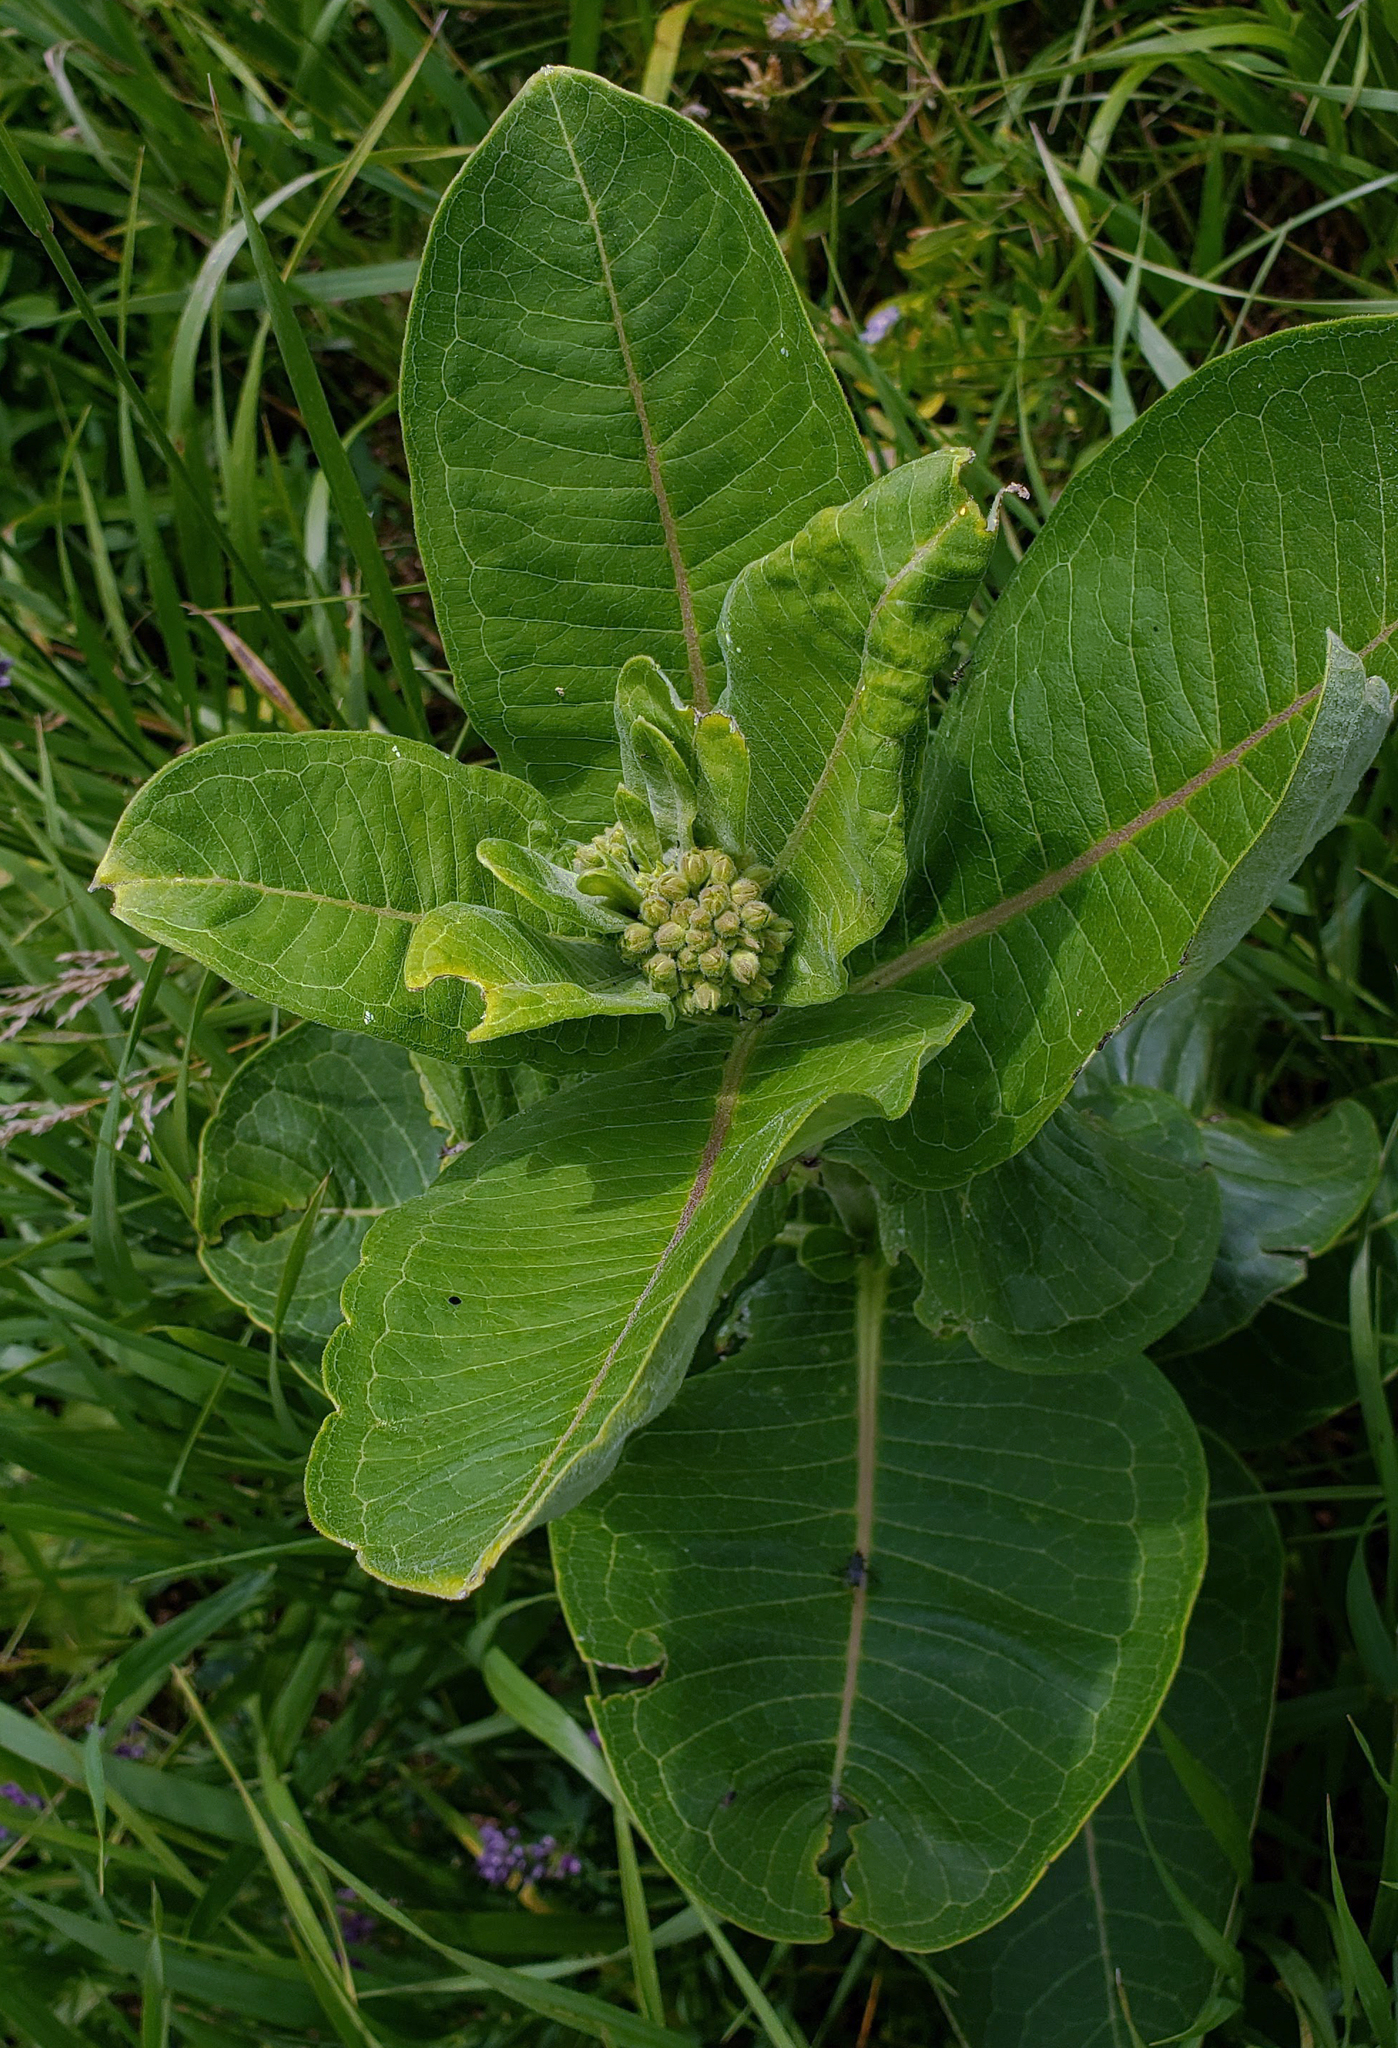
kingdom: Plantae
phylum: Tracheophyta
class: Magnoliopsida
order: Gentianales
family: Apocynaceae
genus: Asclepias
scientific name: Asclepias syriaca
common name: Common milkweed
